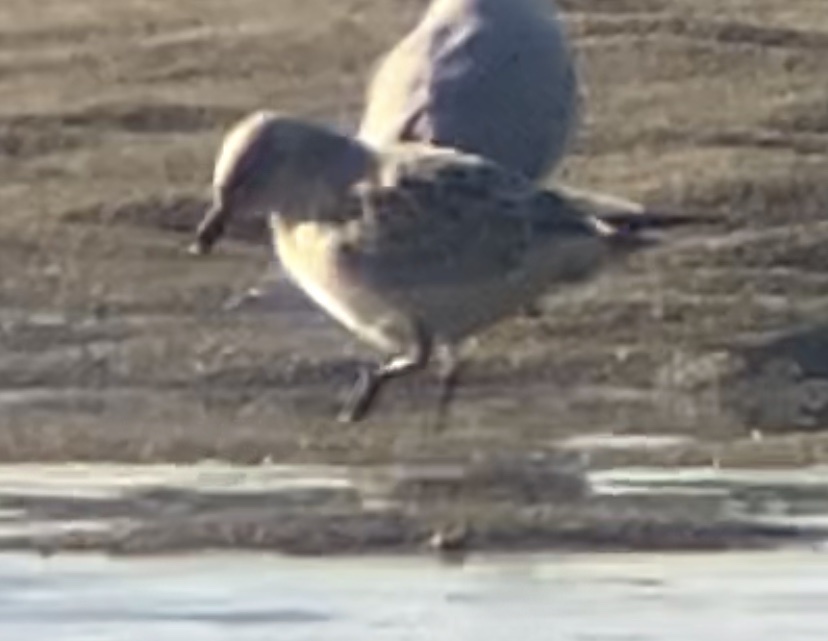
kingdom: Animalia
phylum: Chordata
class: Aves
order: Charadriiformes
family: Laridae
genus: Ichthyaetus
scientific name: Ichthyaetus melanocephalus
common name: Mediterranean gull
